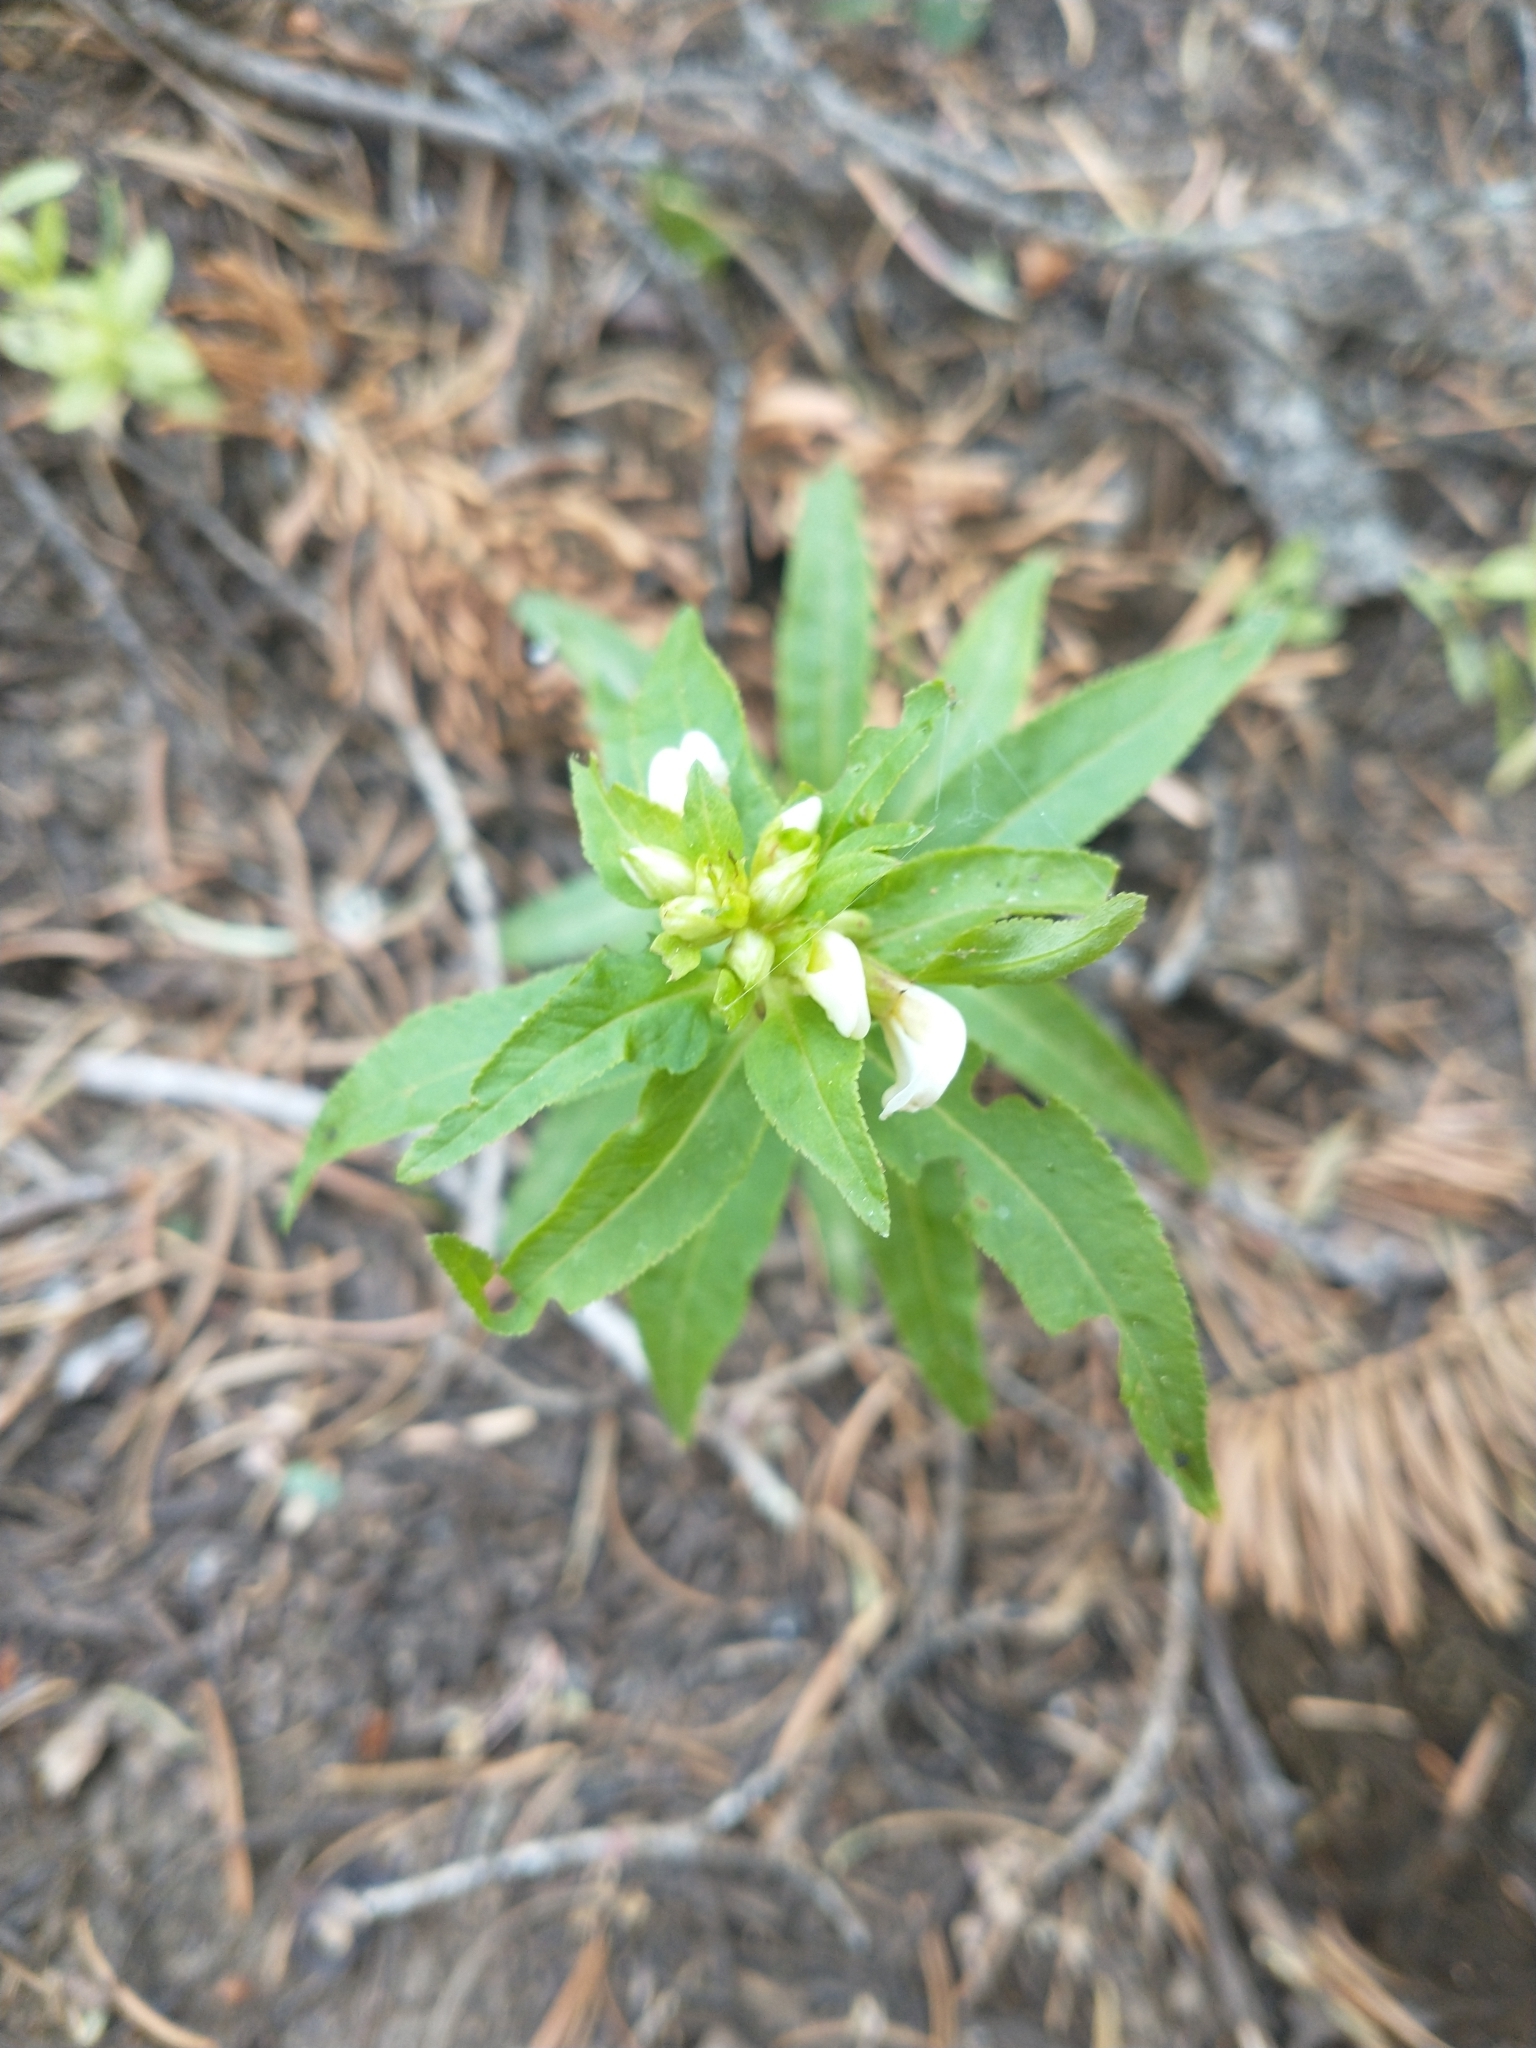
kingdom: Plantae
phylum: Tracheophyta
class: Magnoliopsida
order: Lamiales
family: Orobanchaceae
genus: Pedicularis
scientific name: Pedicularis racemosa
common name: Leafy lousewort
